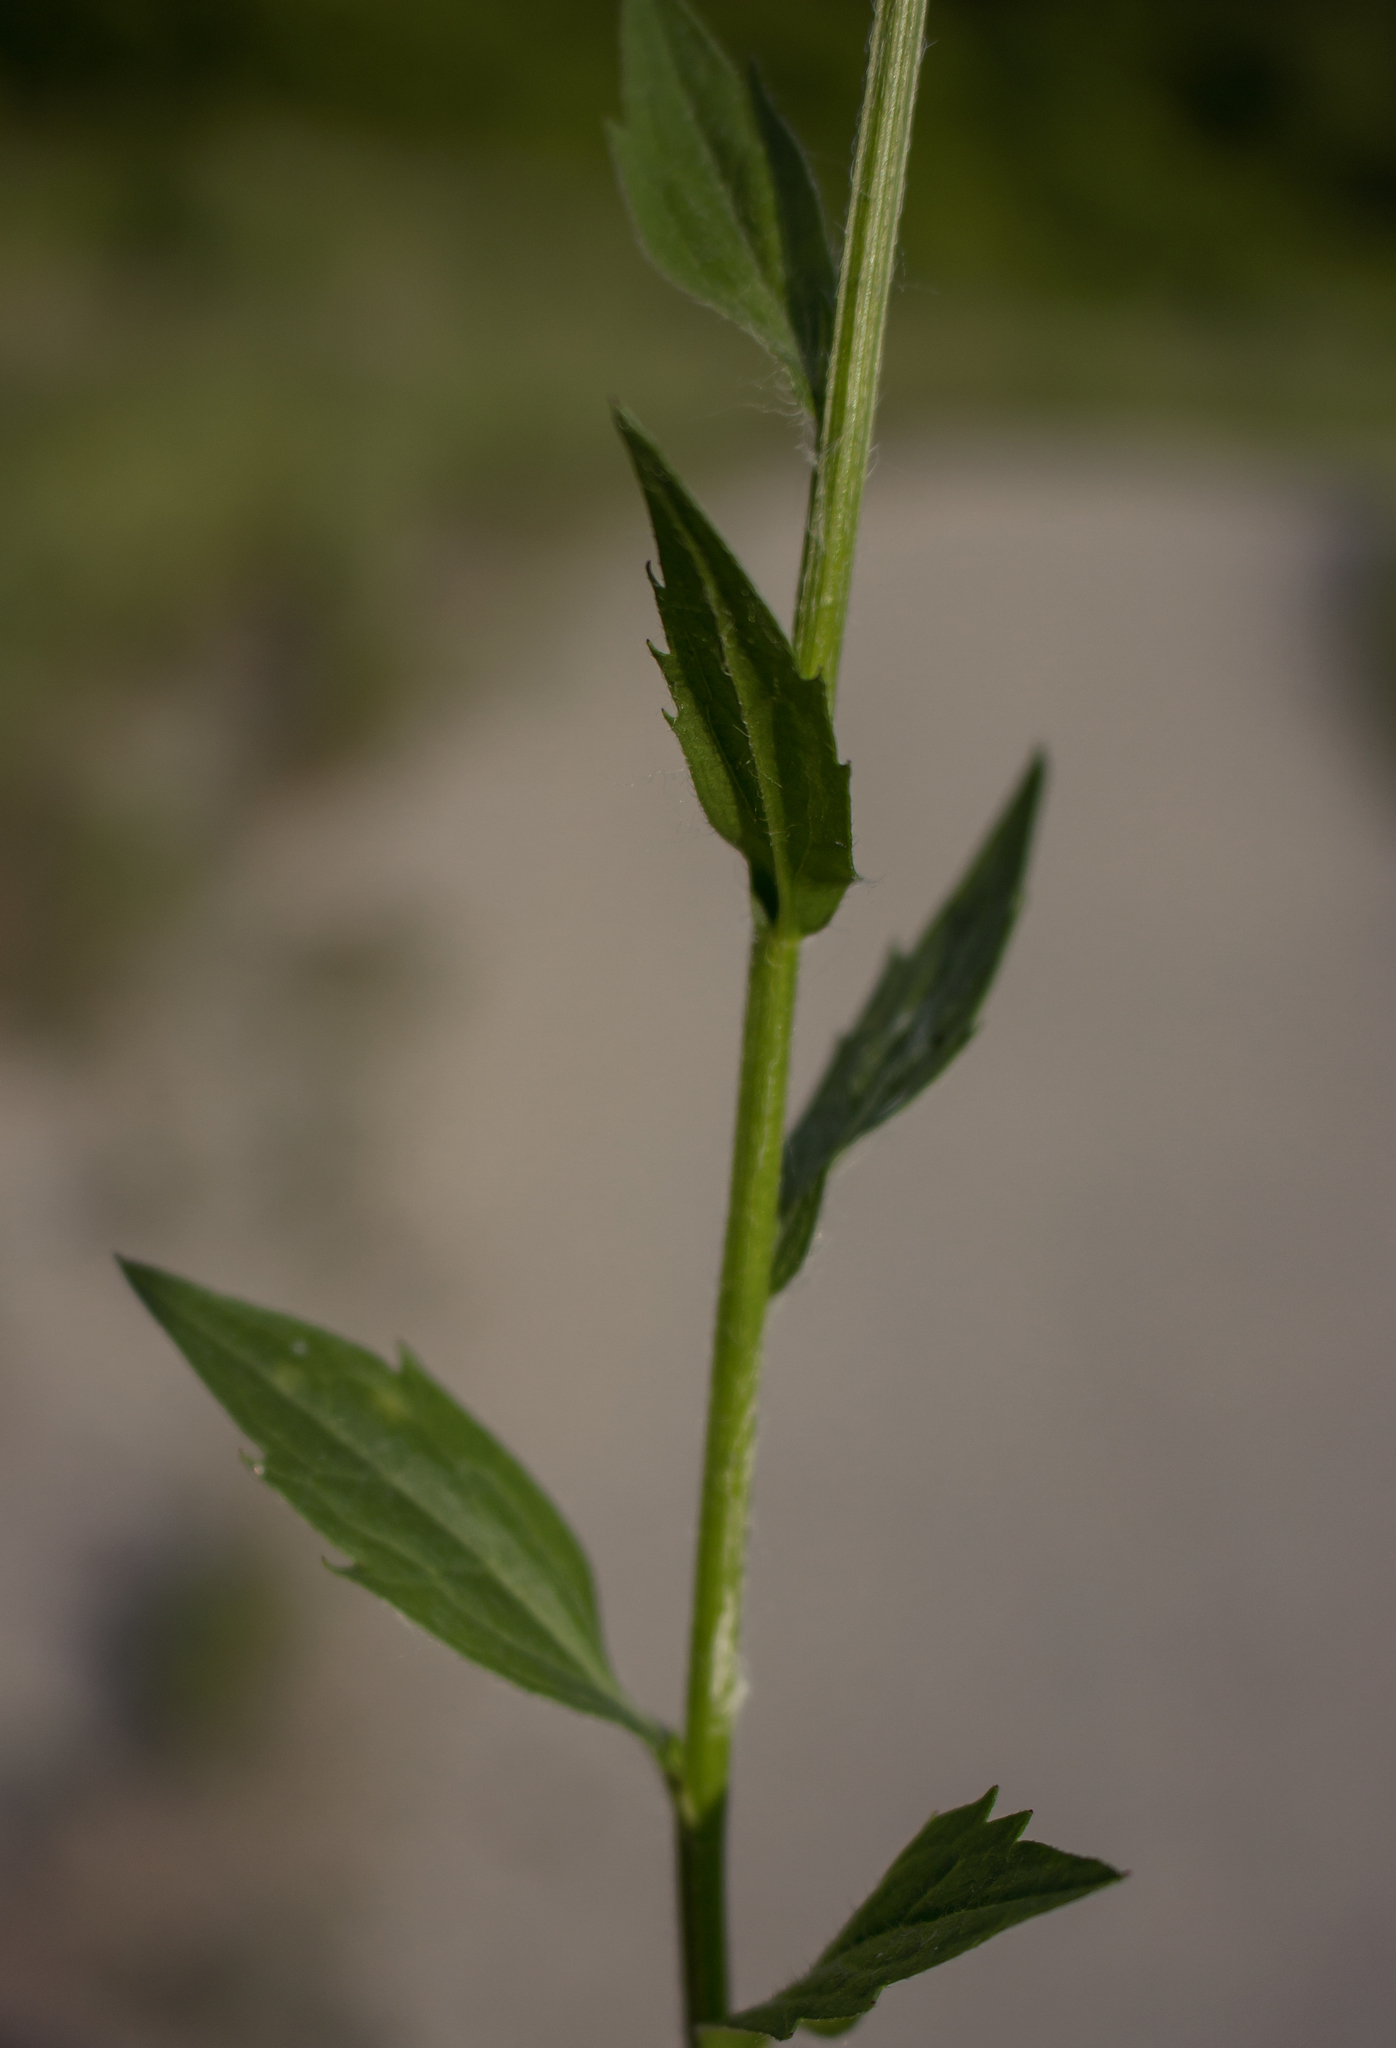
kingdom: Plantae
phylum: Tracheophyta
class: Magnoliopsida
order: Asterales
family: Asteraceae
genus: Erigeron
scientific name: Erigeron annuus
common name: Tall fleabane
